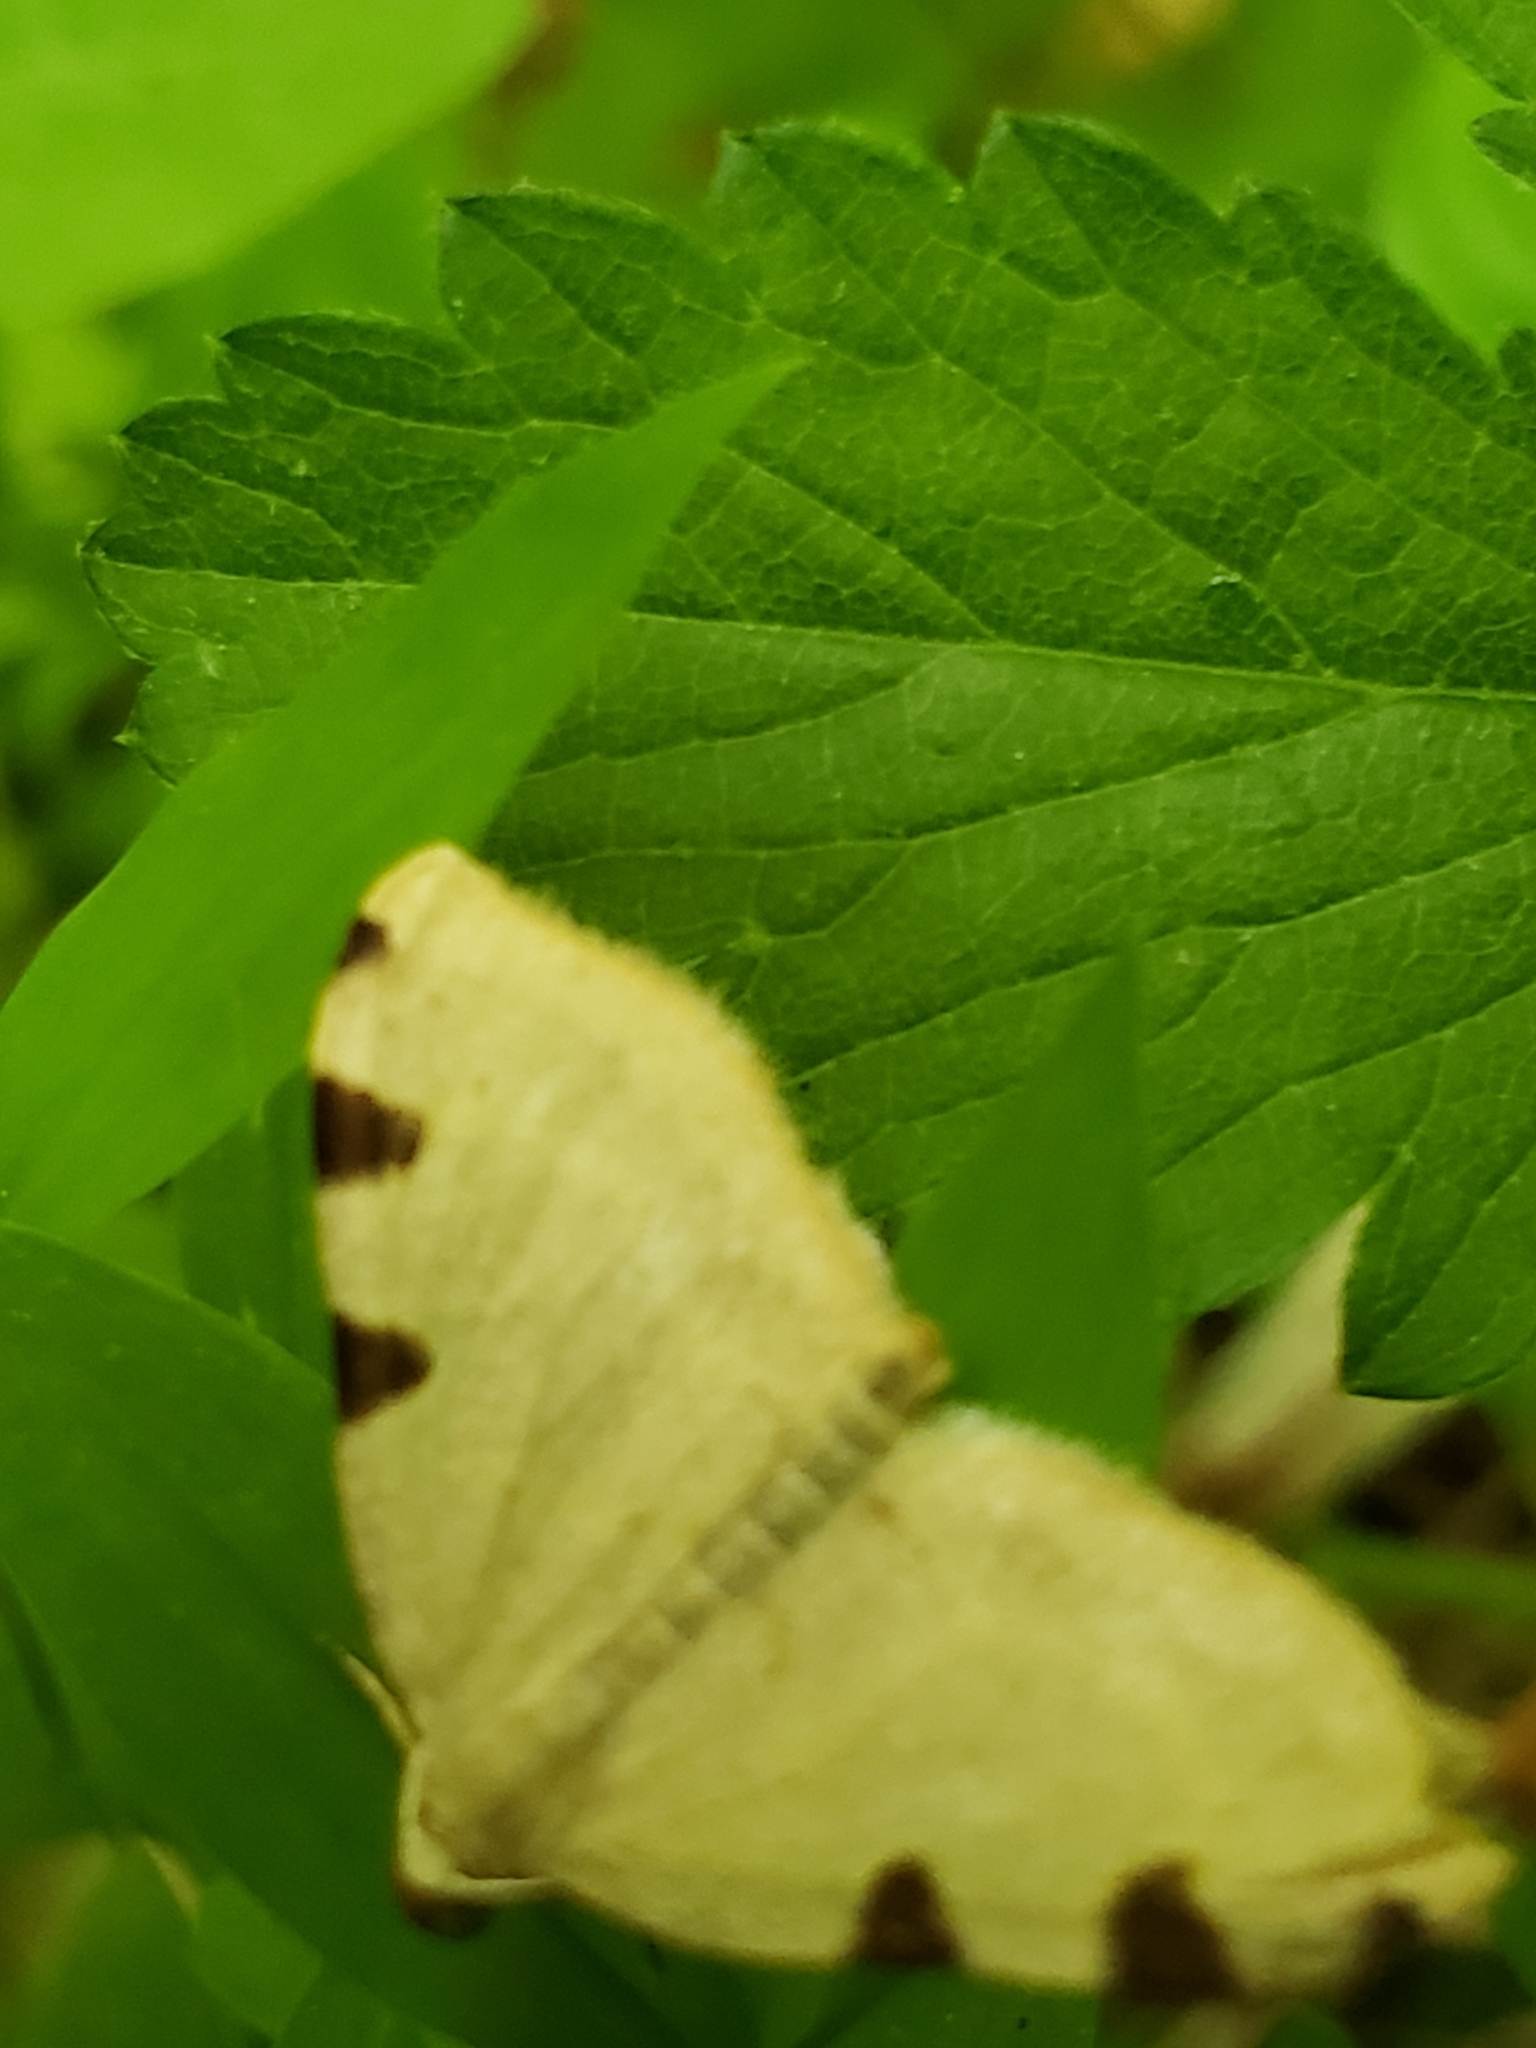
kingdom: Animalia
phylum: Arthropoda
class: Insecta
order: Lepidoptera
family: Geometridae
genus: Heterophleps
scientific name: Heterophleps triguttaria
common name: Three-spotted fillip
